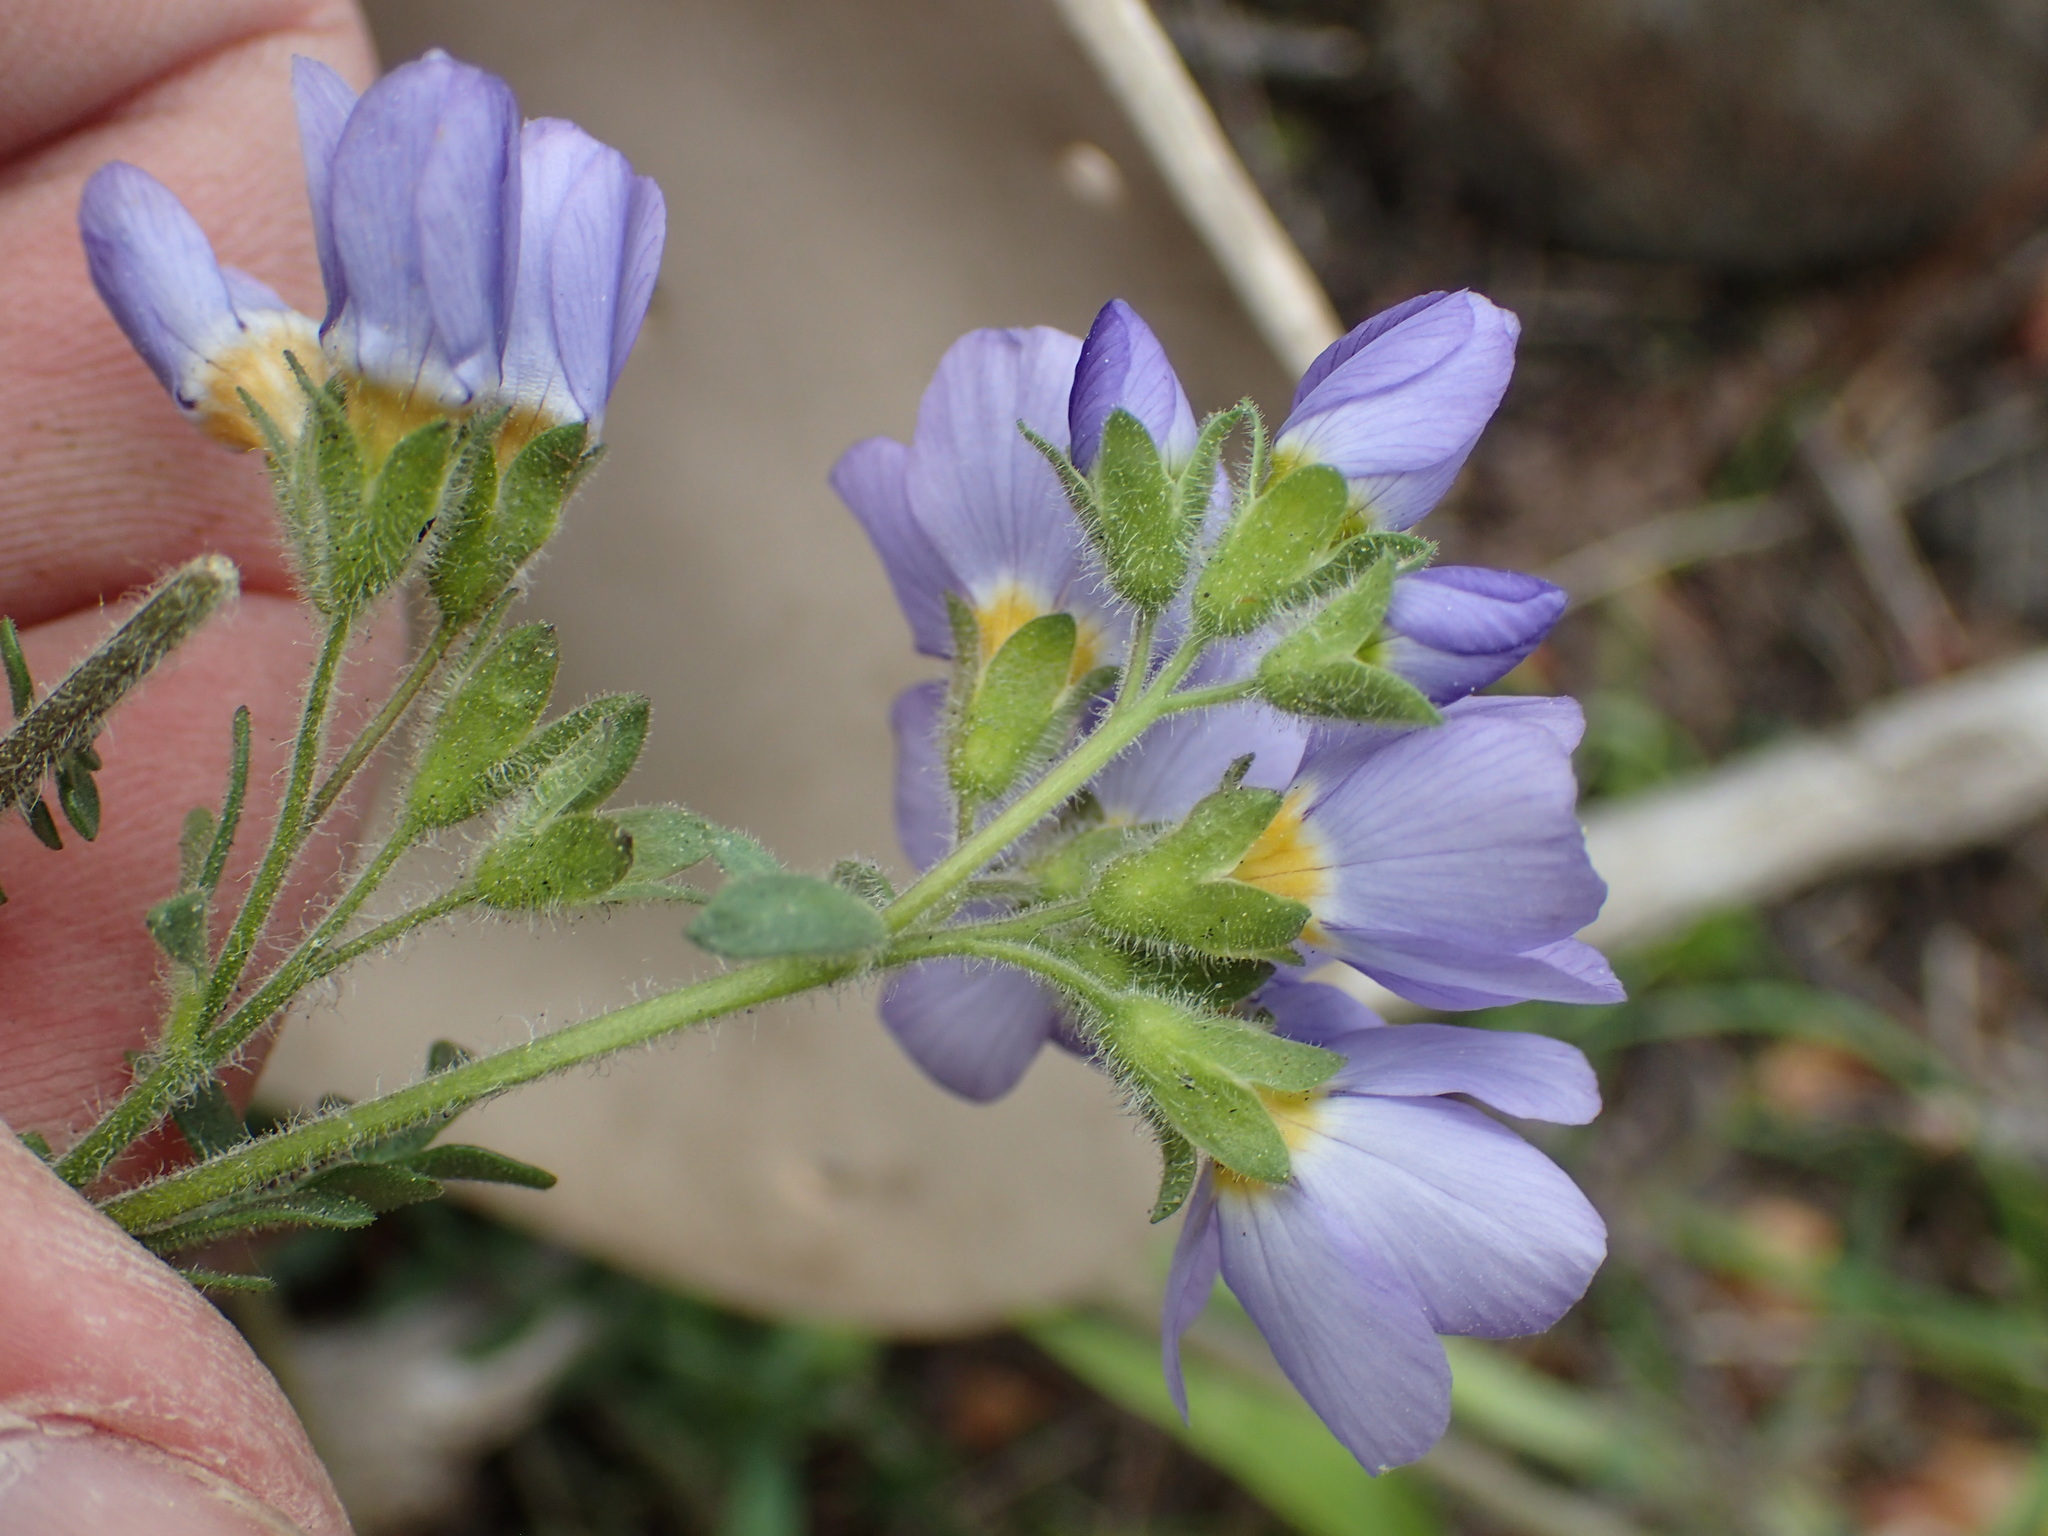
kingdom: Plantae
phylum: Tracheophyta
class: Magnoliopsida
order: Ericales
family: Polemoniaceae
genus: Polemonium
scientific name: Polemonium pulcherrimum
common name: Short jacob's-ladder
